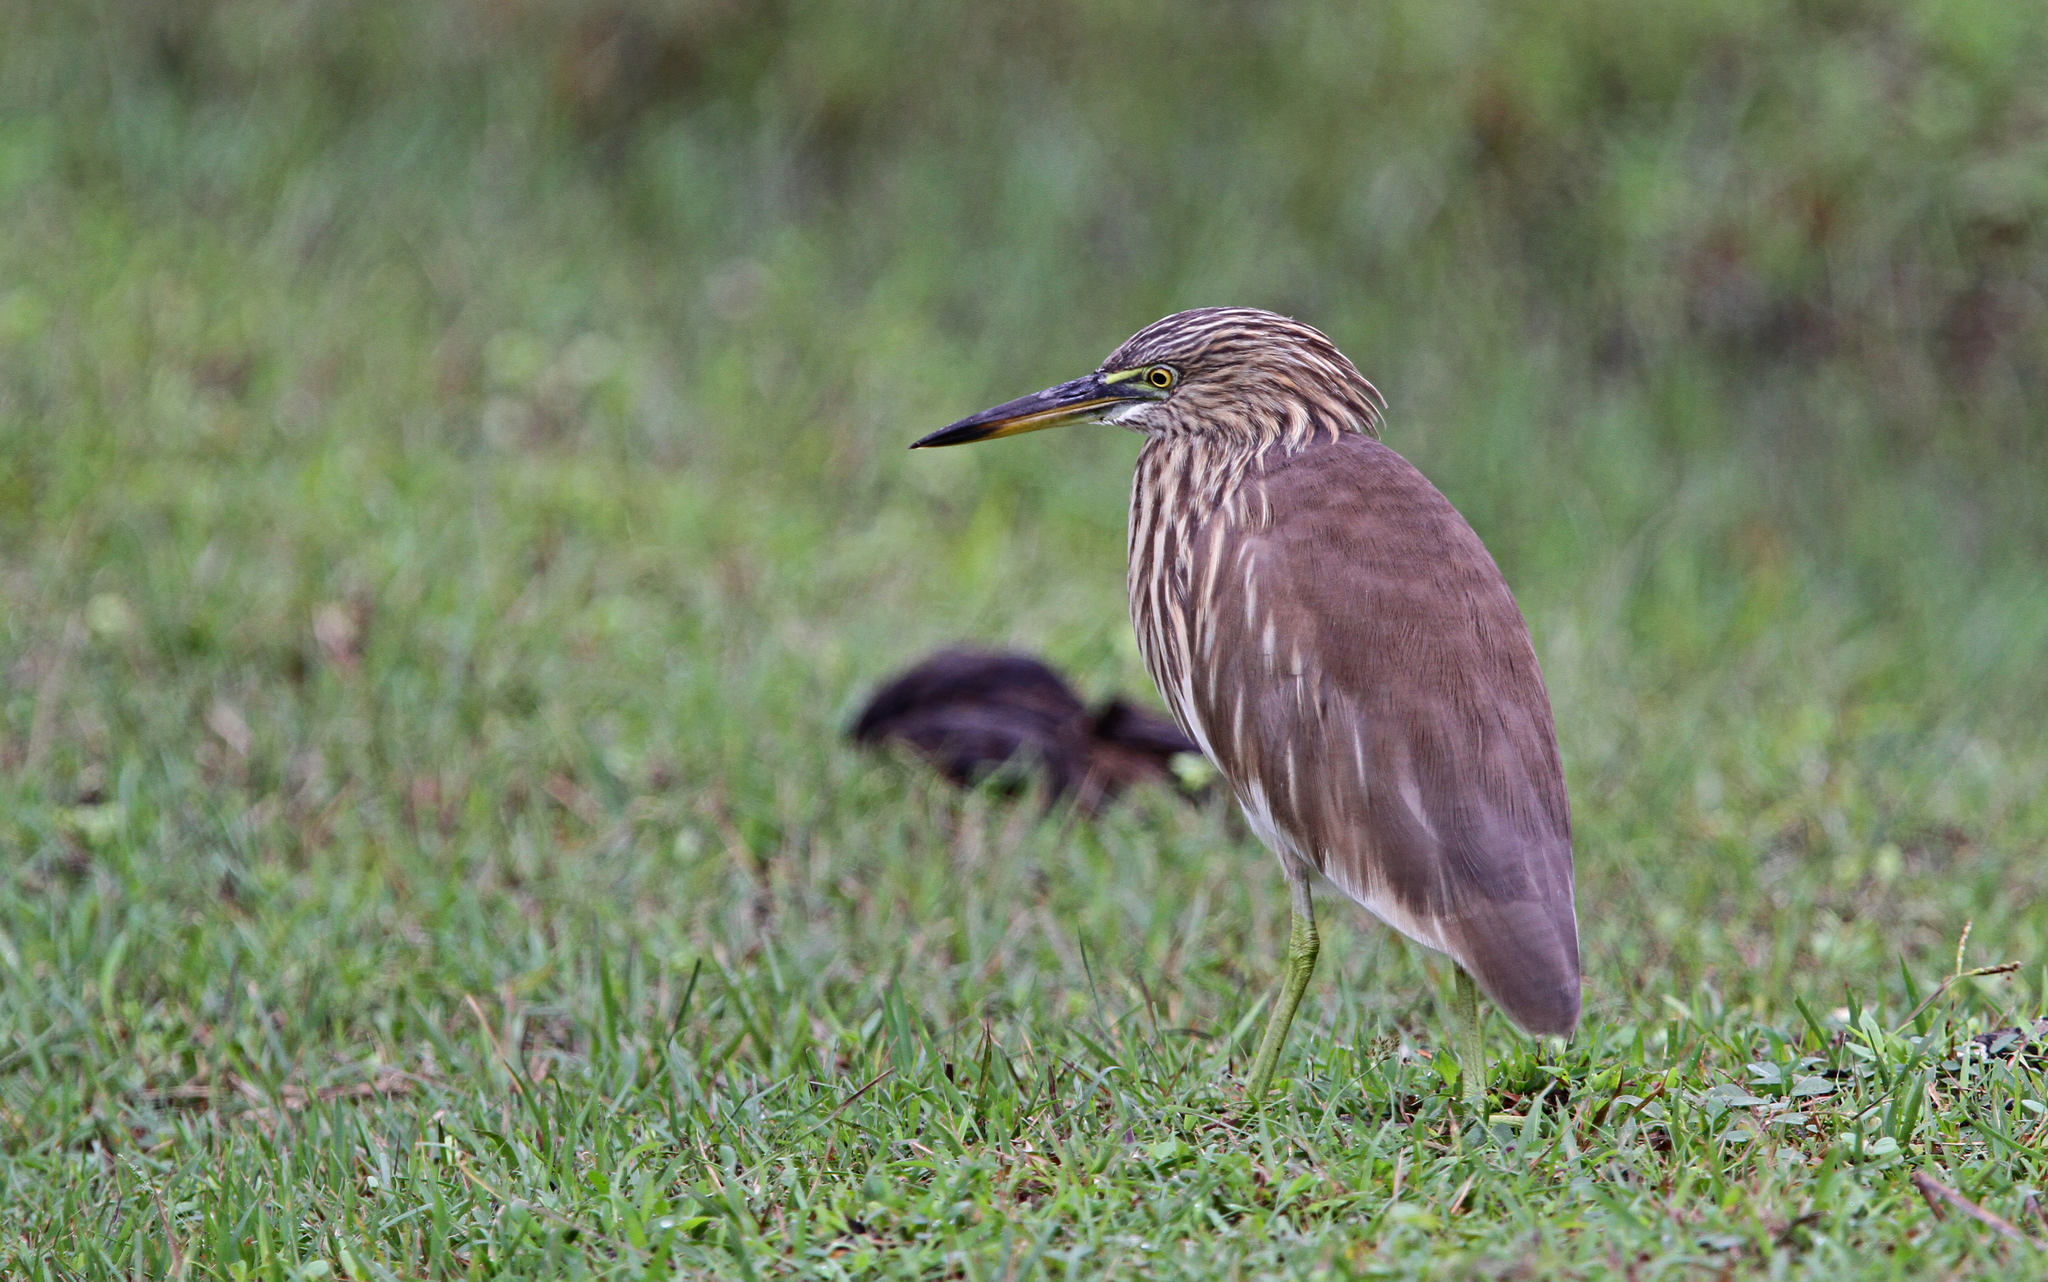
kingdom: Animalia
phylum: Chordata
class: Aves
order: Pelecaniformes
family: Ardeidae
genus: Ardeola
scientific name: Ardeola grayii
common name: Indian pond heron
